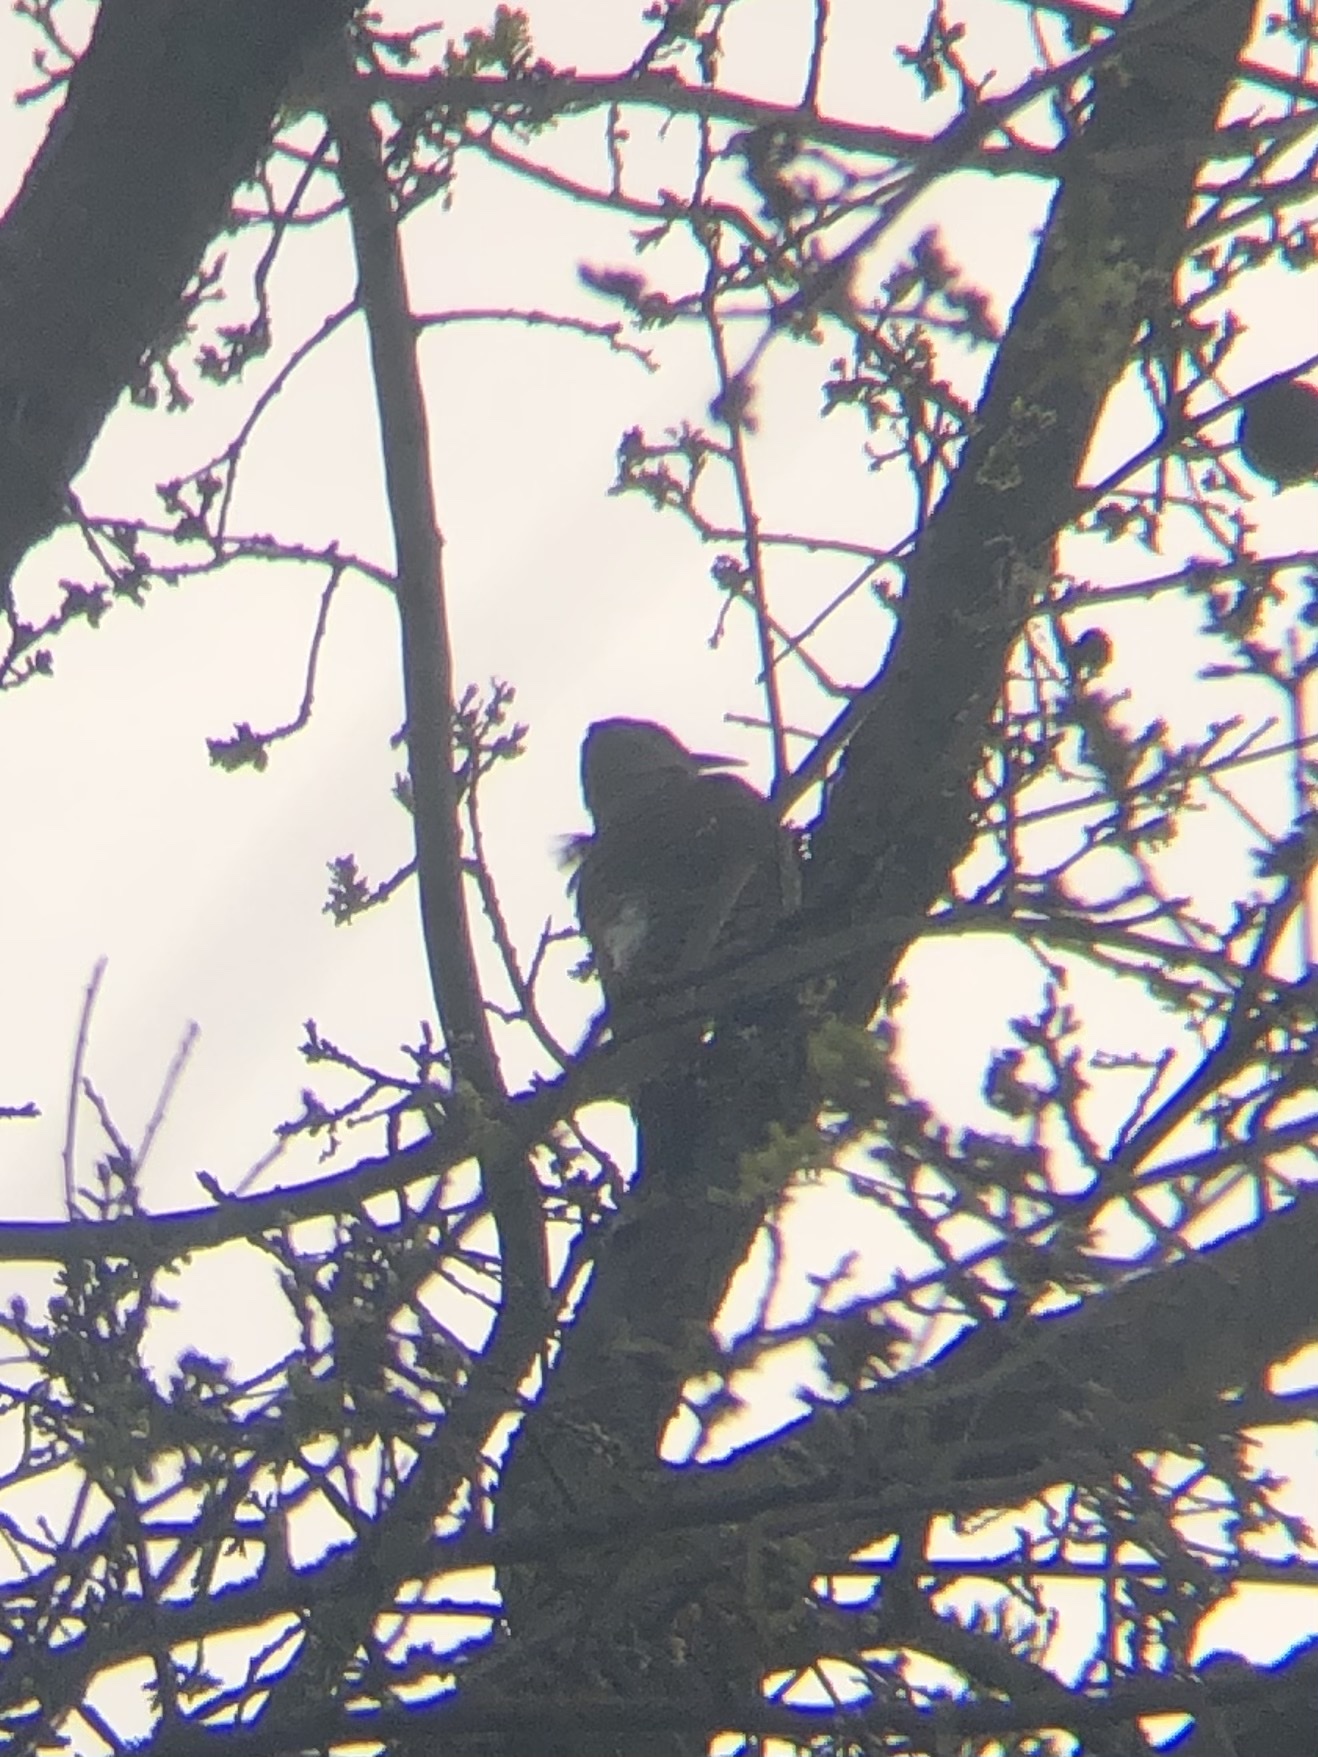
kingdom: Animalia
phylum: Chordata
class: Aves
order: Piciformes
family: Picidae
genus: Colaptes
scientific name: Colaptes auratus
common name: Northern flicker
